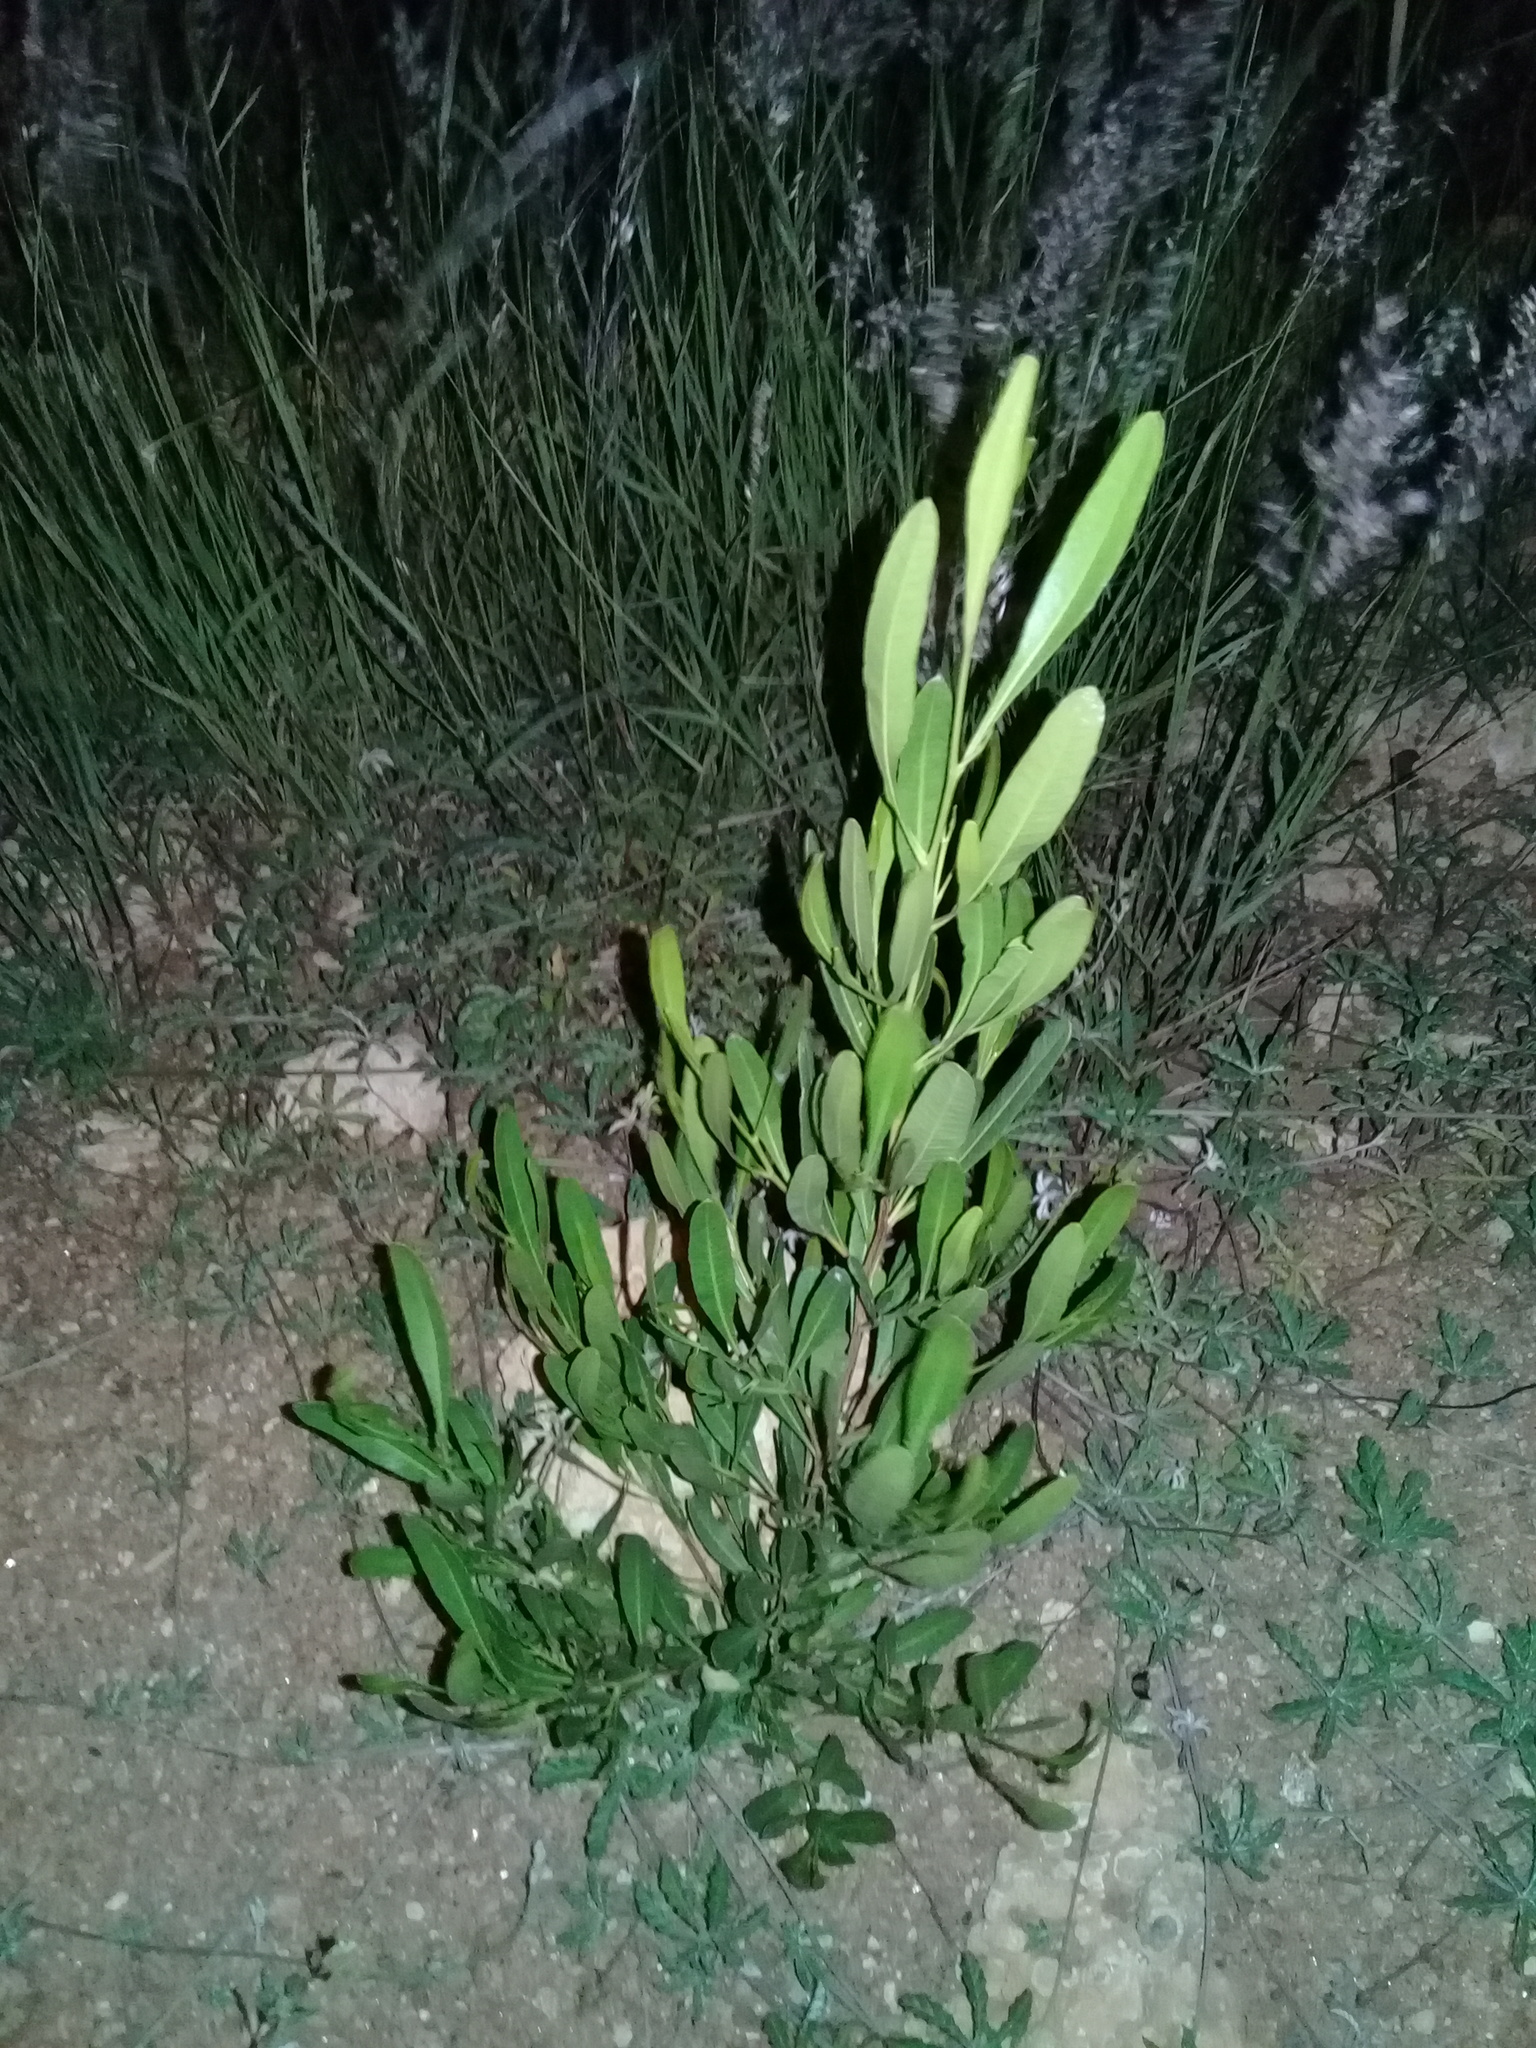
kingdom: Plantae
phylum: Tracheophyta
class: Magnoliopsida
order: Sapindales
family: Sapindaceae
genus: Dodonaea
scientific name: Dodonaea viscosa
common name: Hopbush
